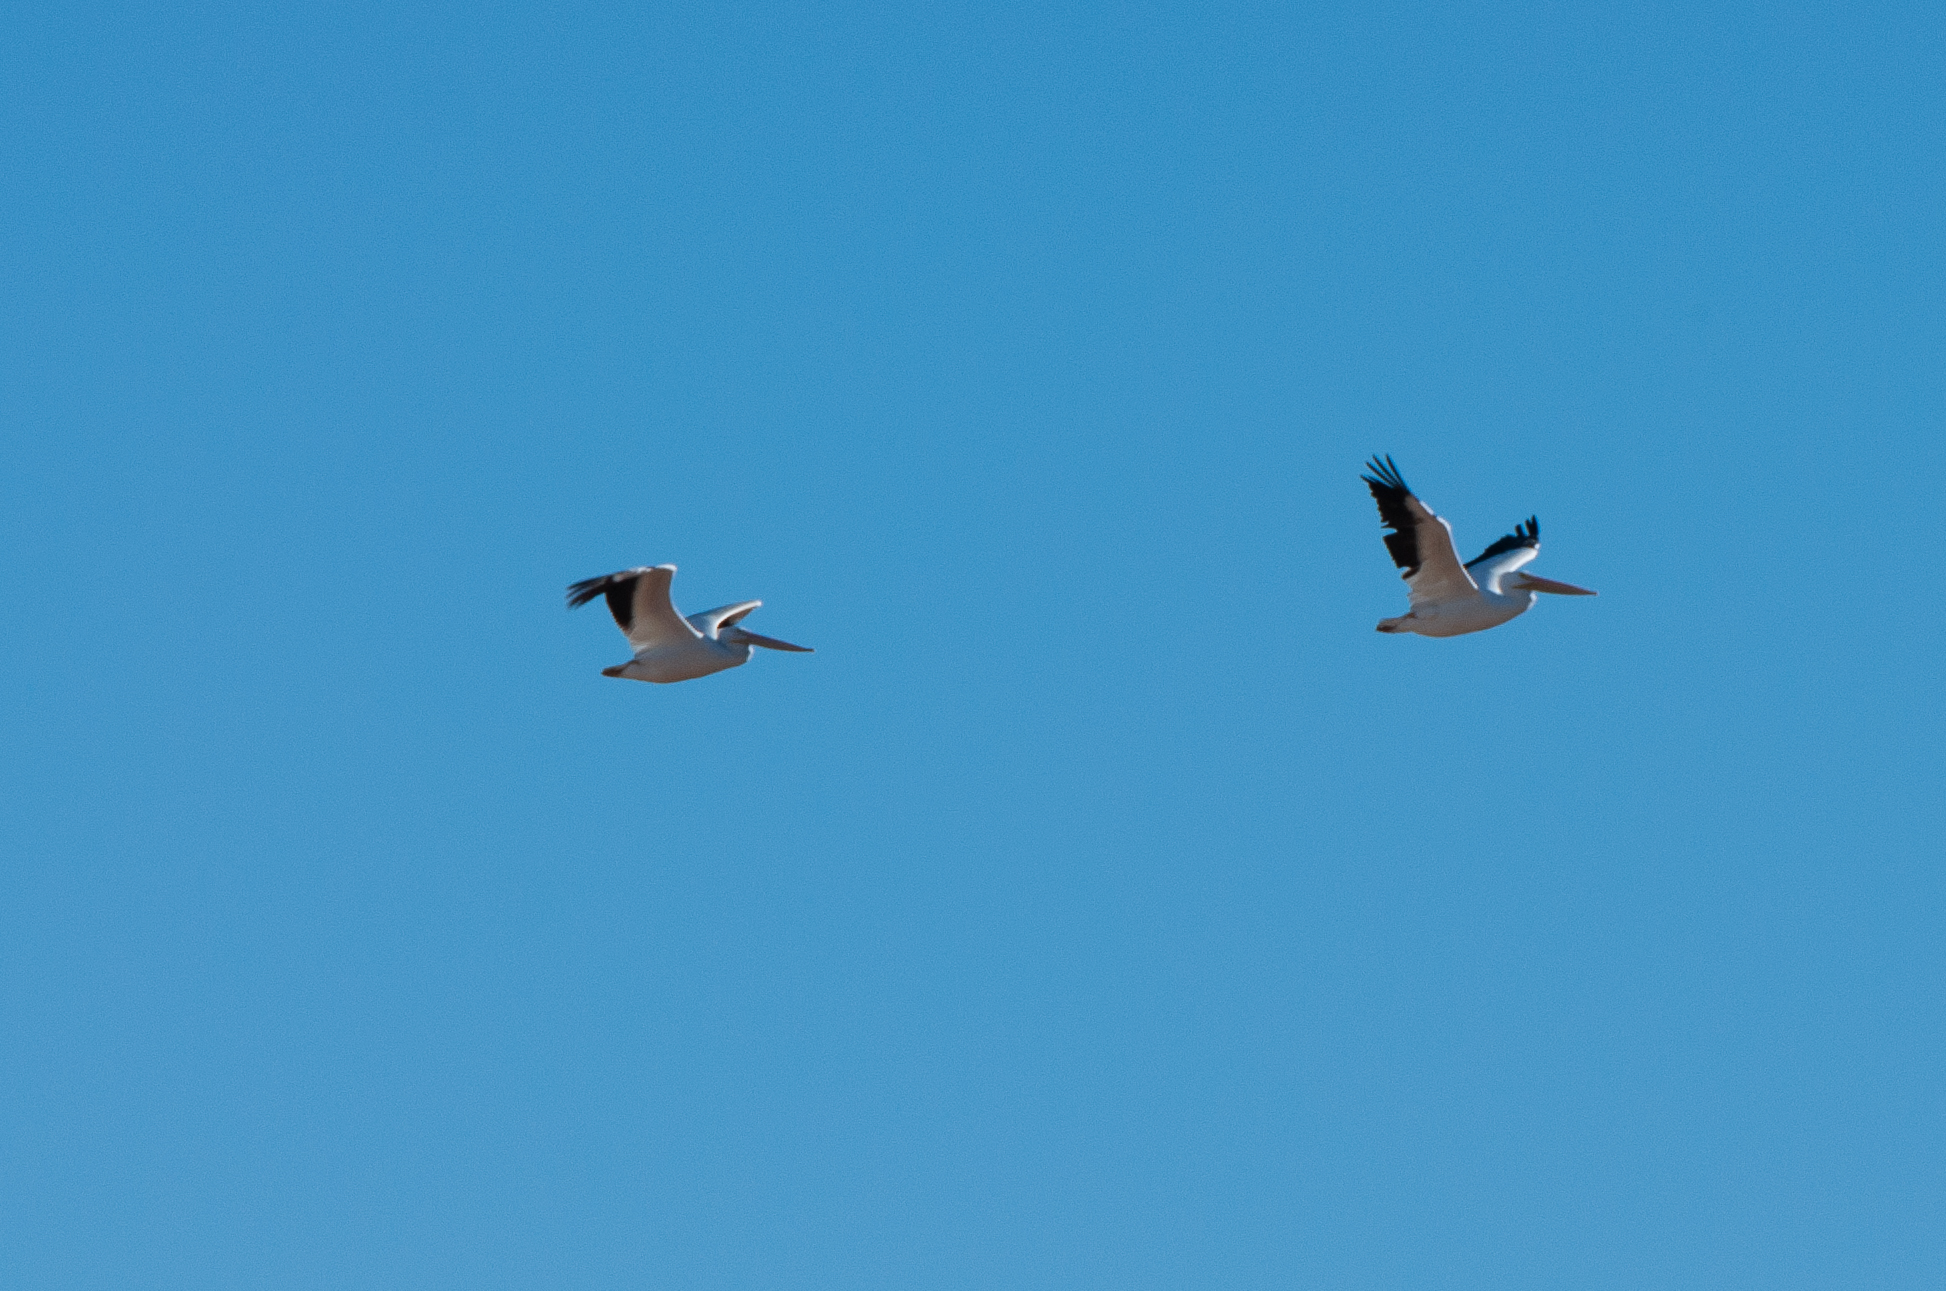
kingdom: Animalia
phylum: Chordata
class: Aves
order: Pelecaniformes
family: Pelecanidae
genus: Pelecanus
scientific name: Pelecanus erythrorhynchos
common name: American white pelican
